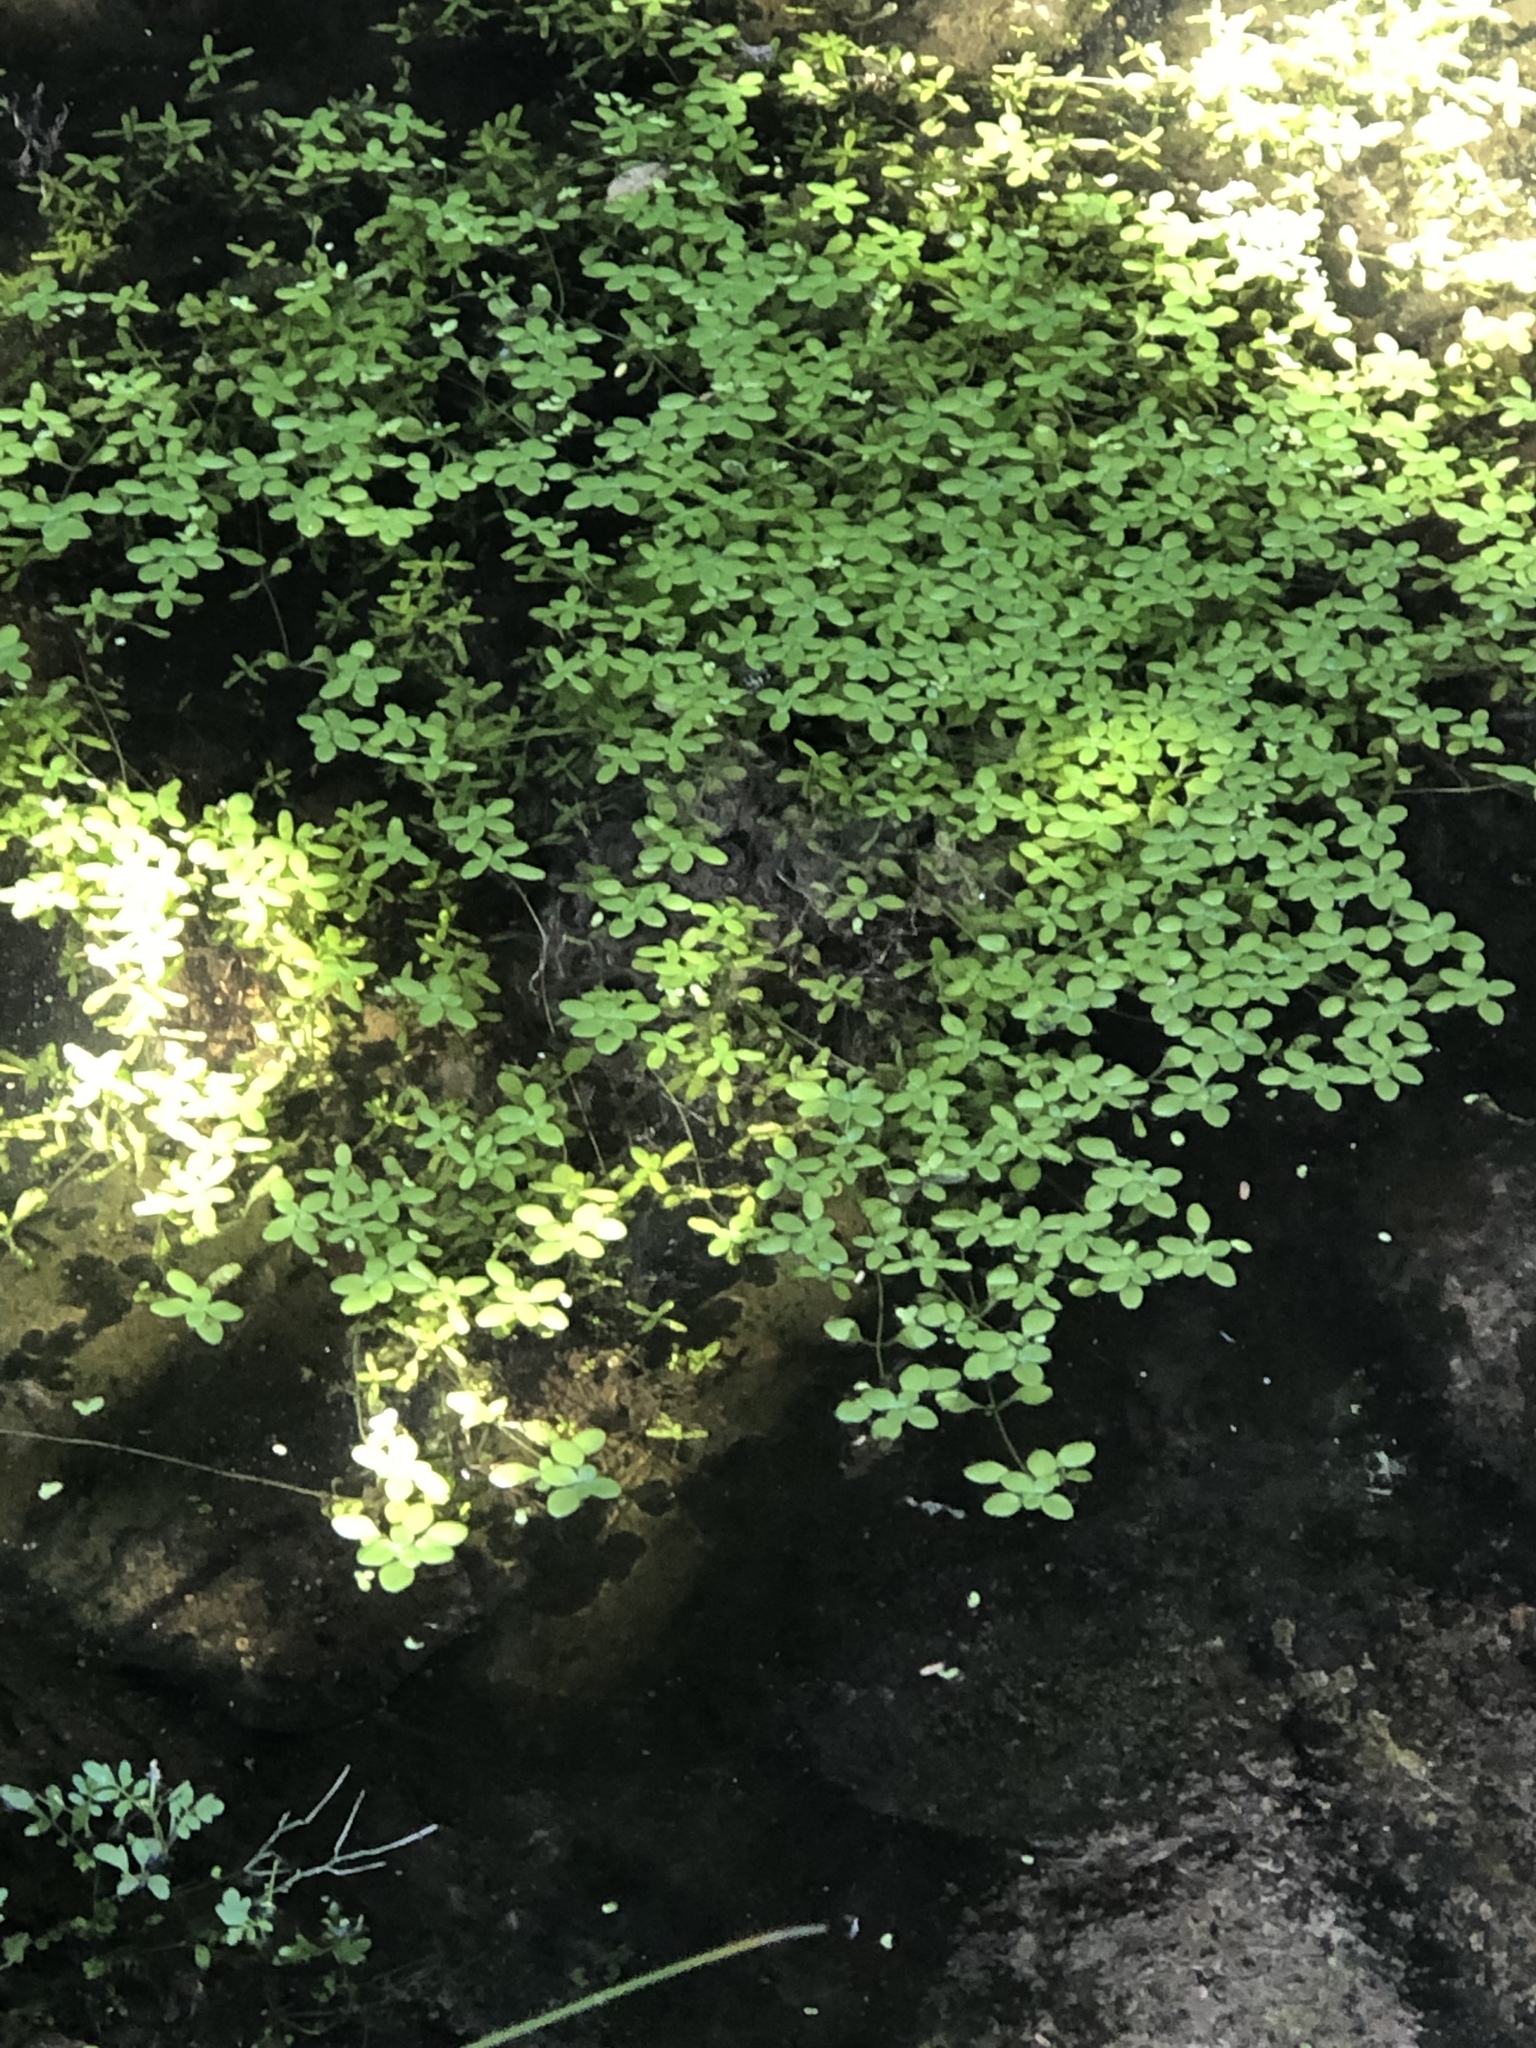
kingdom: Plantae
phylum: Tracheophyta
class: Magnoliopsida
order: Lamiales
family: Plantaginaceae
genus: Callitriche
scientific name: Callitriche stagnalis
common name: Common water-starwort
